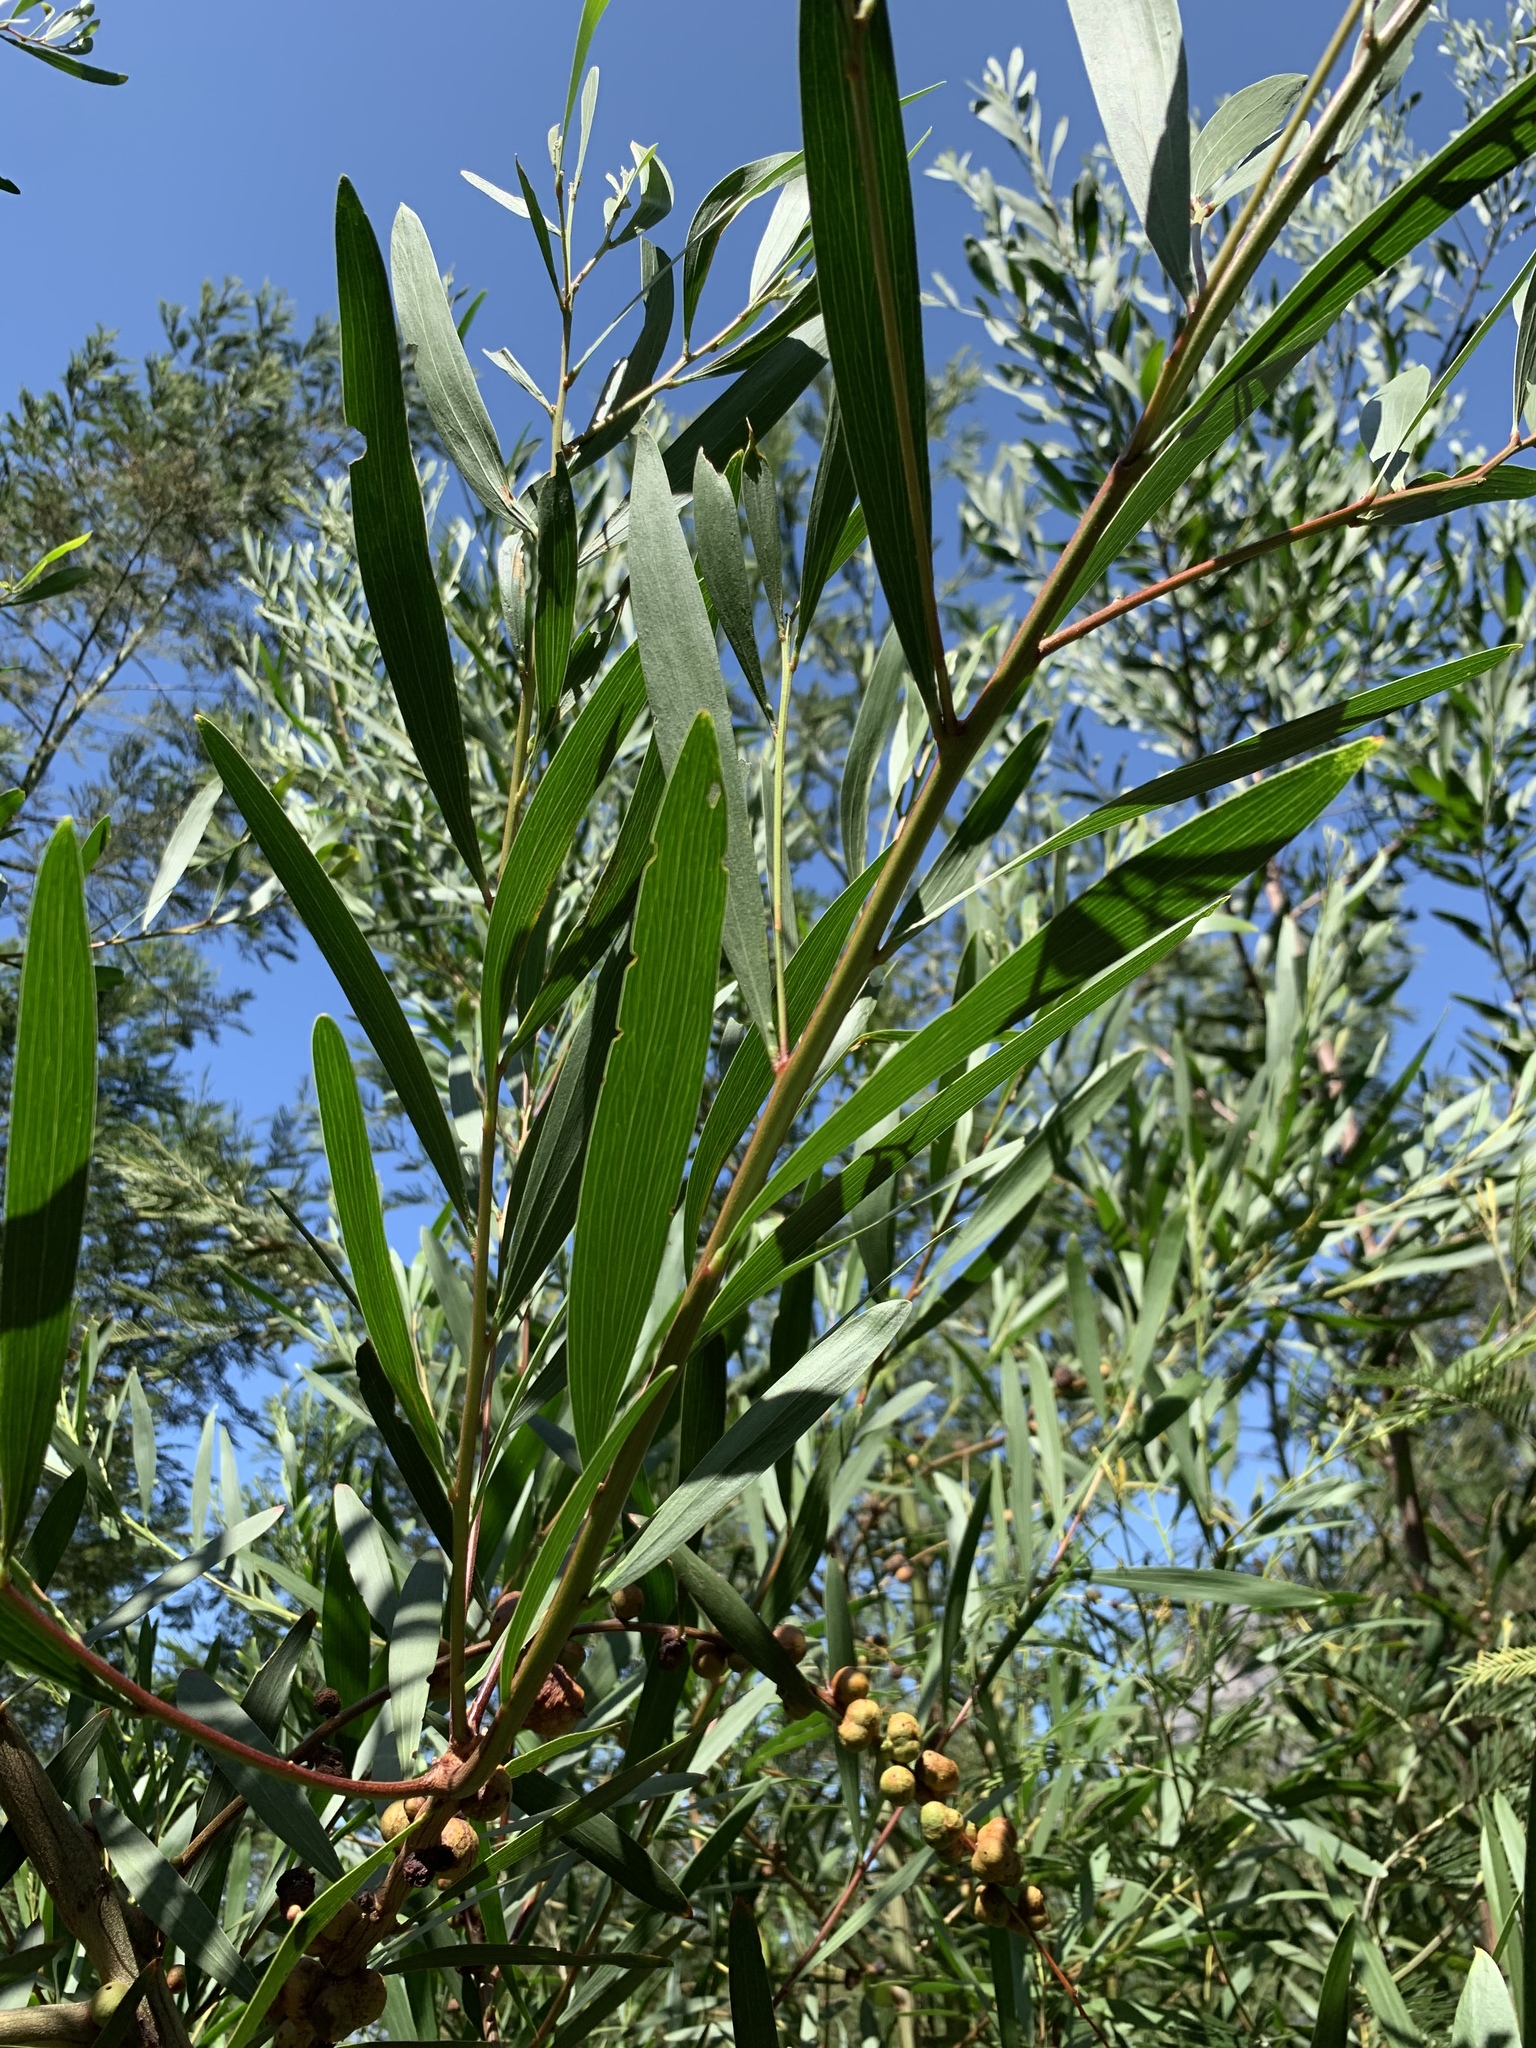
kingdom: Plantae
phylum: Tracheophyta
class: Magnoliopsida
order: Fabales
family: Fabaceae
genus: Acacia
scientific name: Acacia longifolia
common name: Sydney golden wattle
